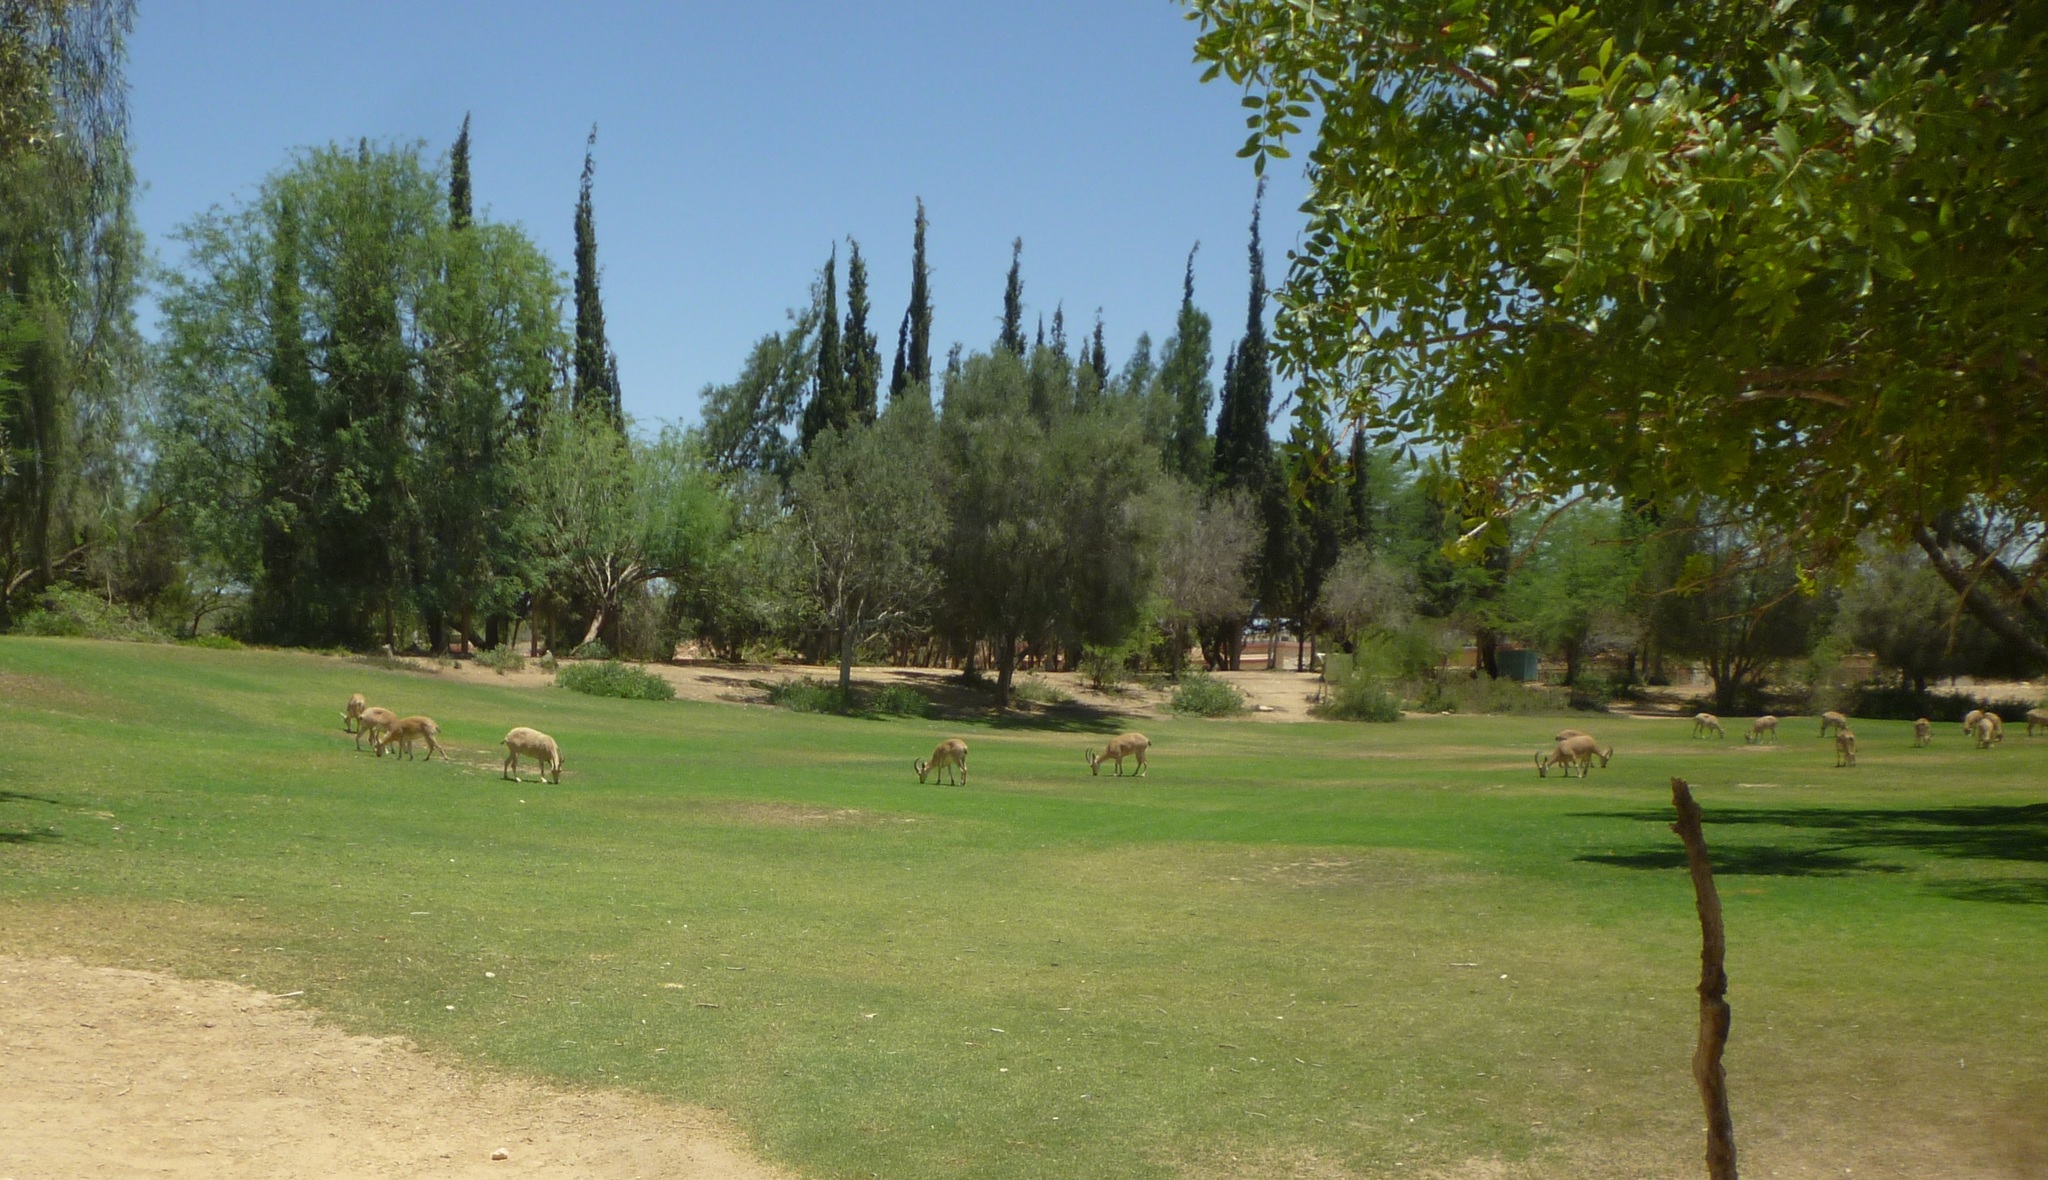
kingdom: Animalia
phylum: Chordata
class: Mammalia
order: Artiodactyla
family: Bovidae
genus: Capra
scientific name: Capra nubiana
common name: Nubian ibex
